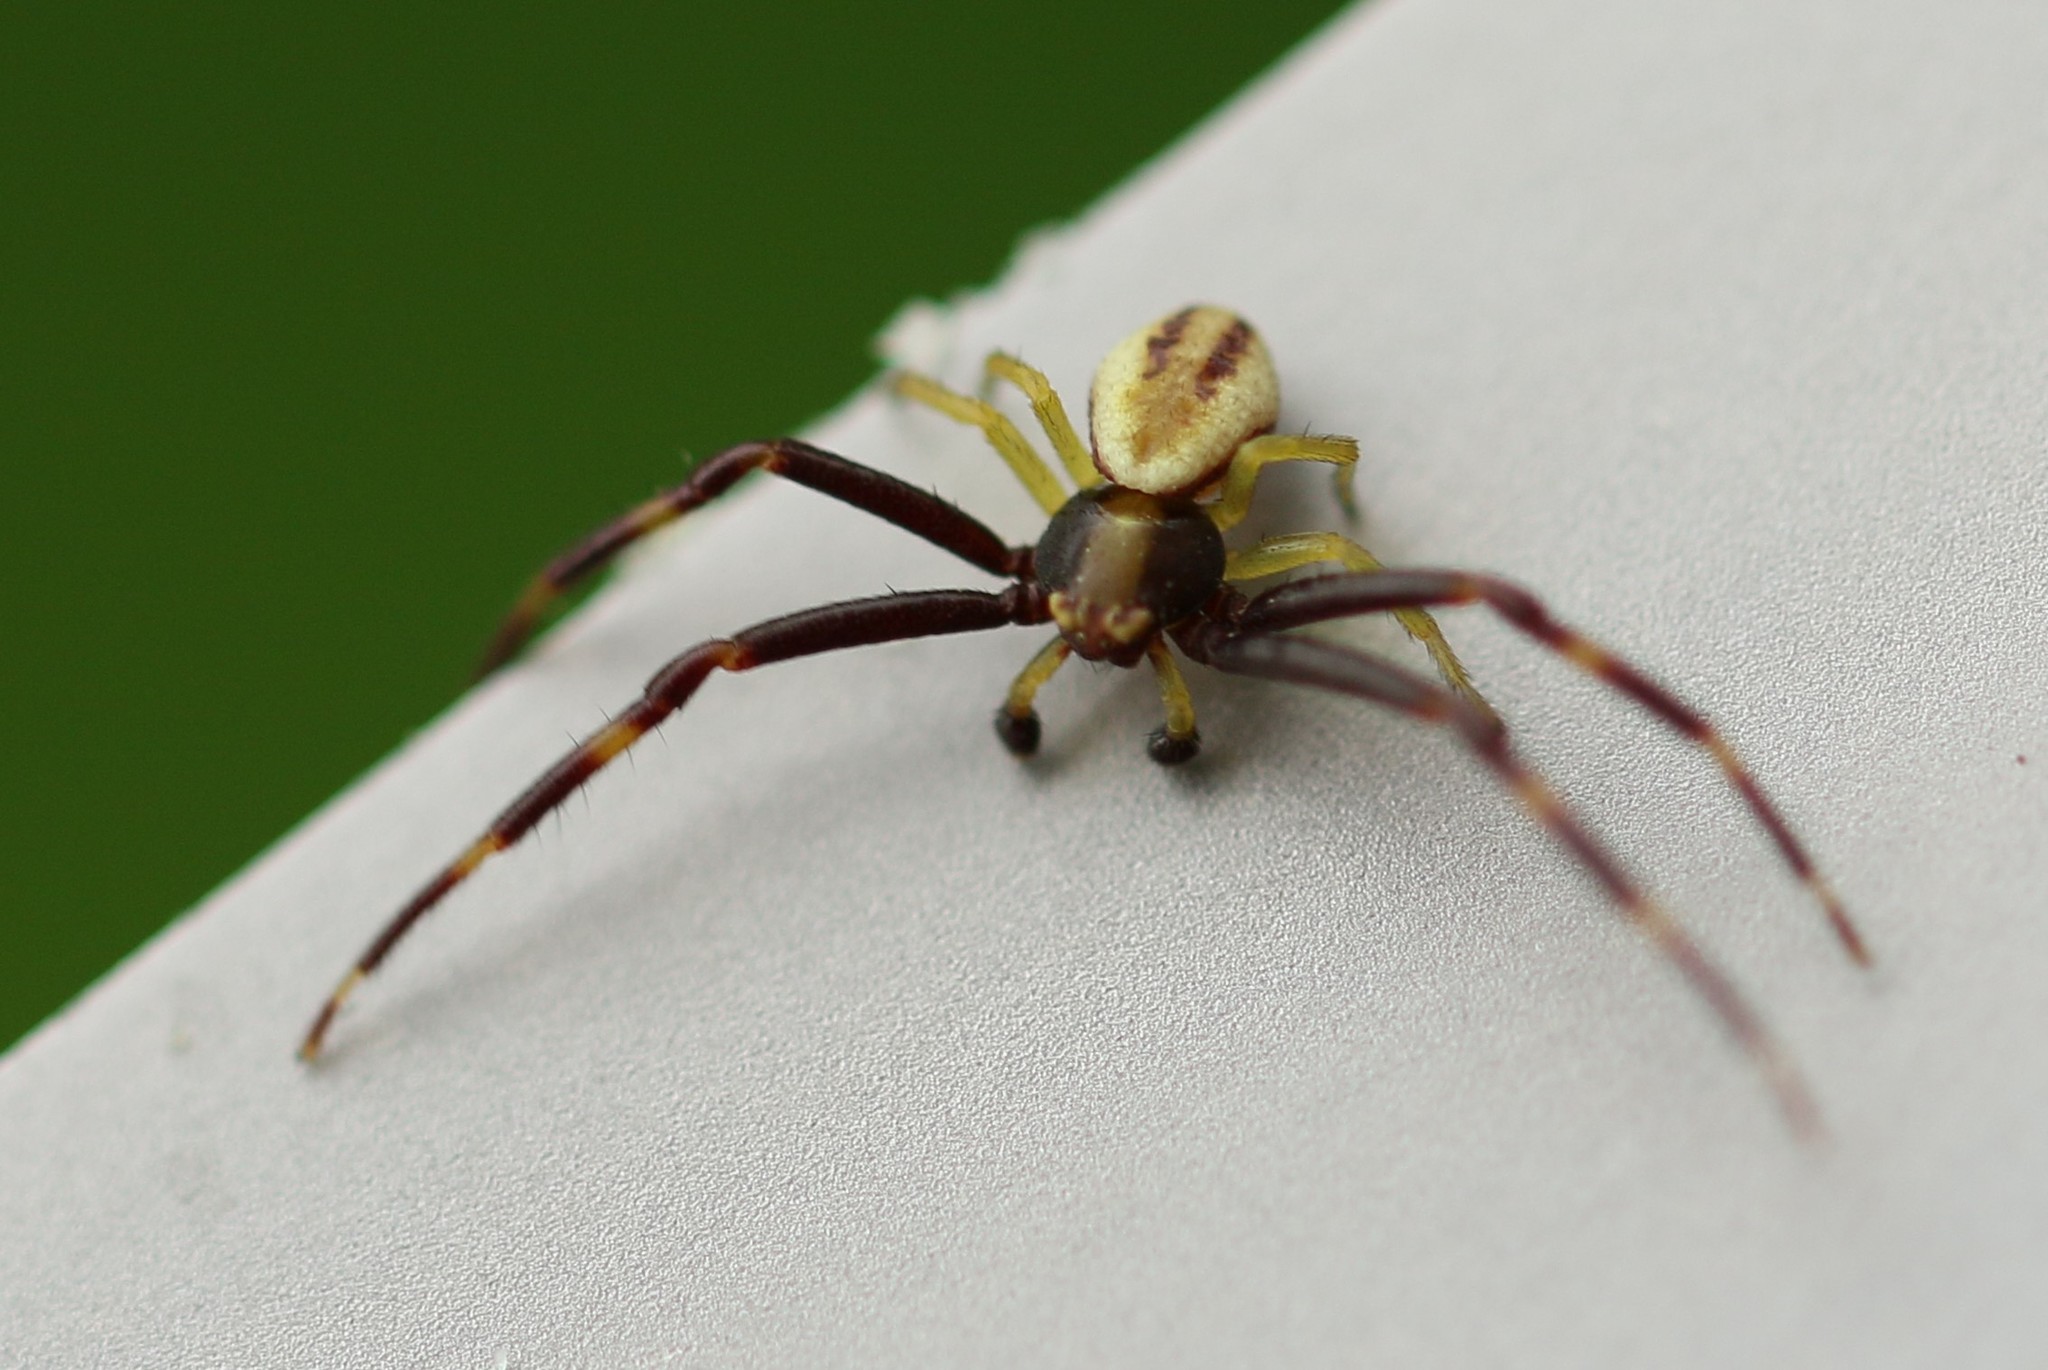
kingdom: Animalia
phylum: Arthropoda
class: Arachnida
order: Araneae
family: Thomisidae
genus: Misumena
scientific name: Misumena vatia
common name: Goldenrod crab spider
